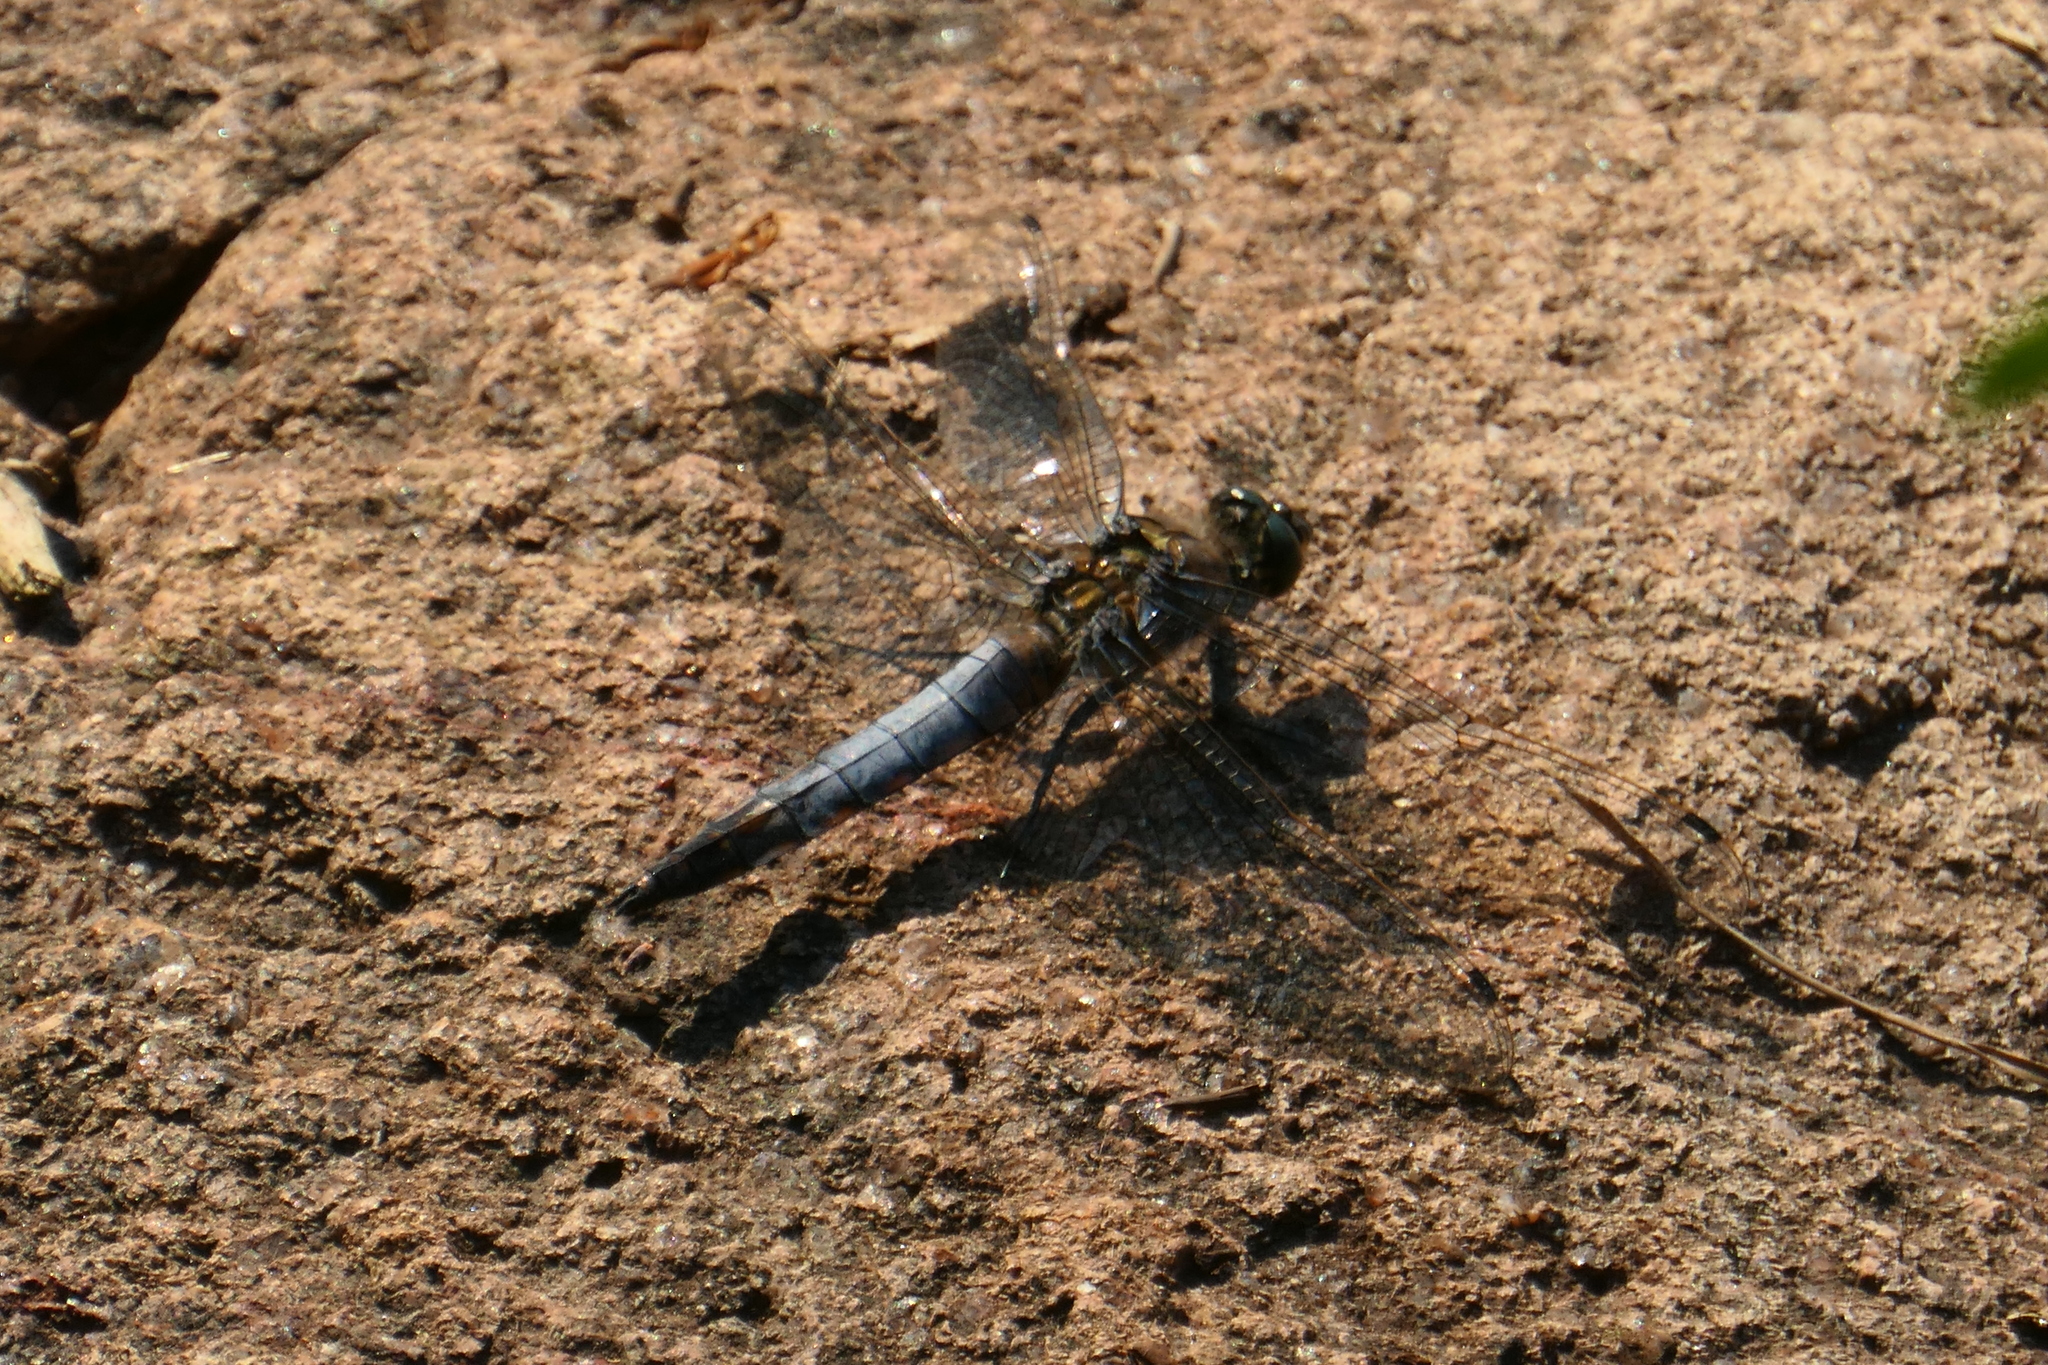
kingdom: Animalia
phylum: Arthropoda
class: Insecta
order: Odonata
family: Libellulidae
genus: Orthetrum
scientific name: Orthetrum cancellatum
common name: Black-tailed skimmer
